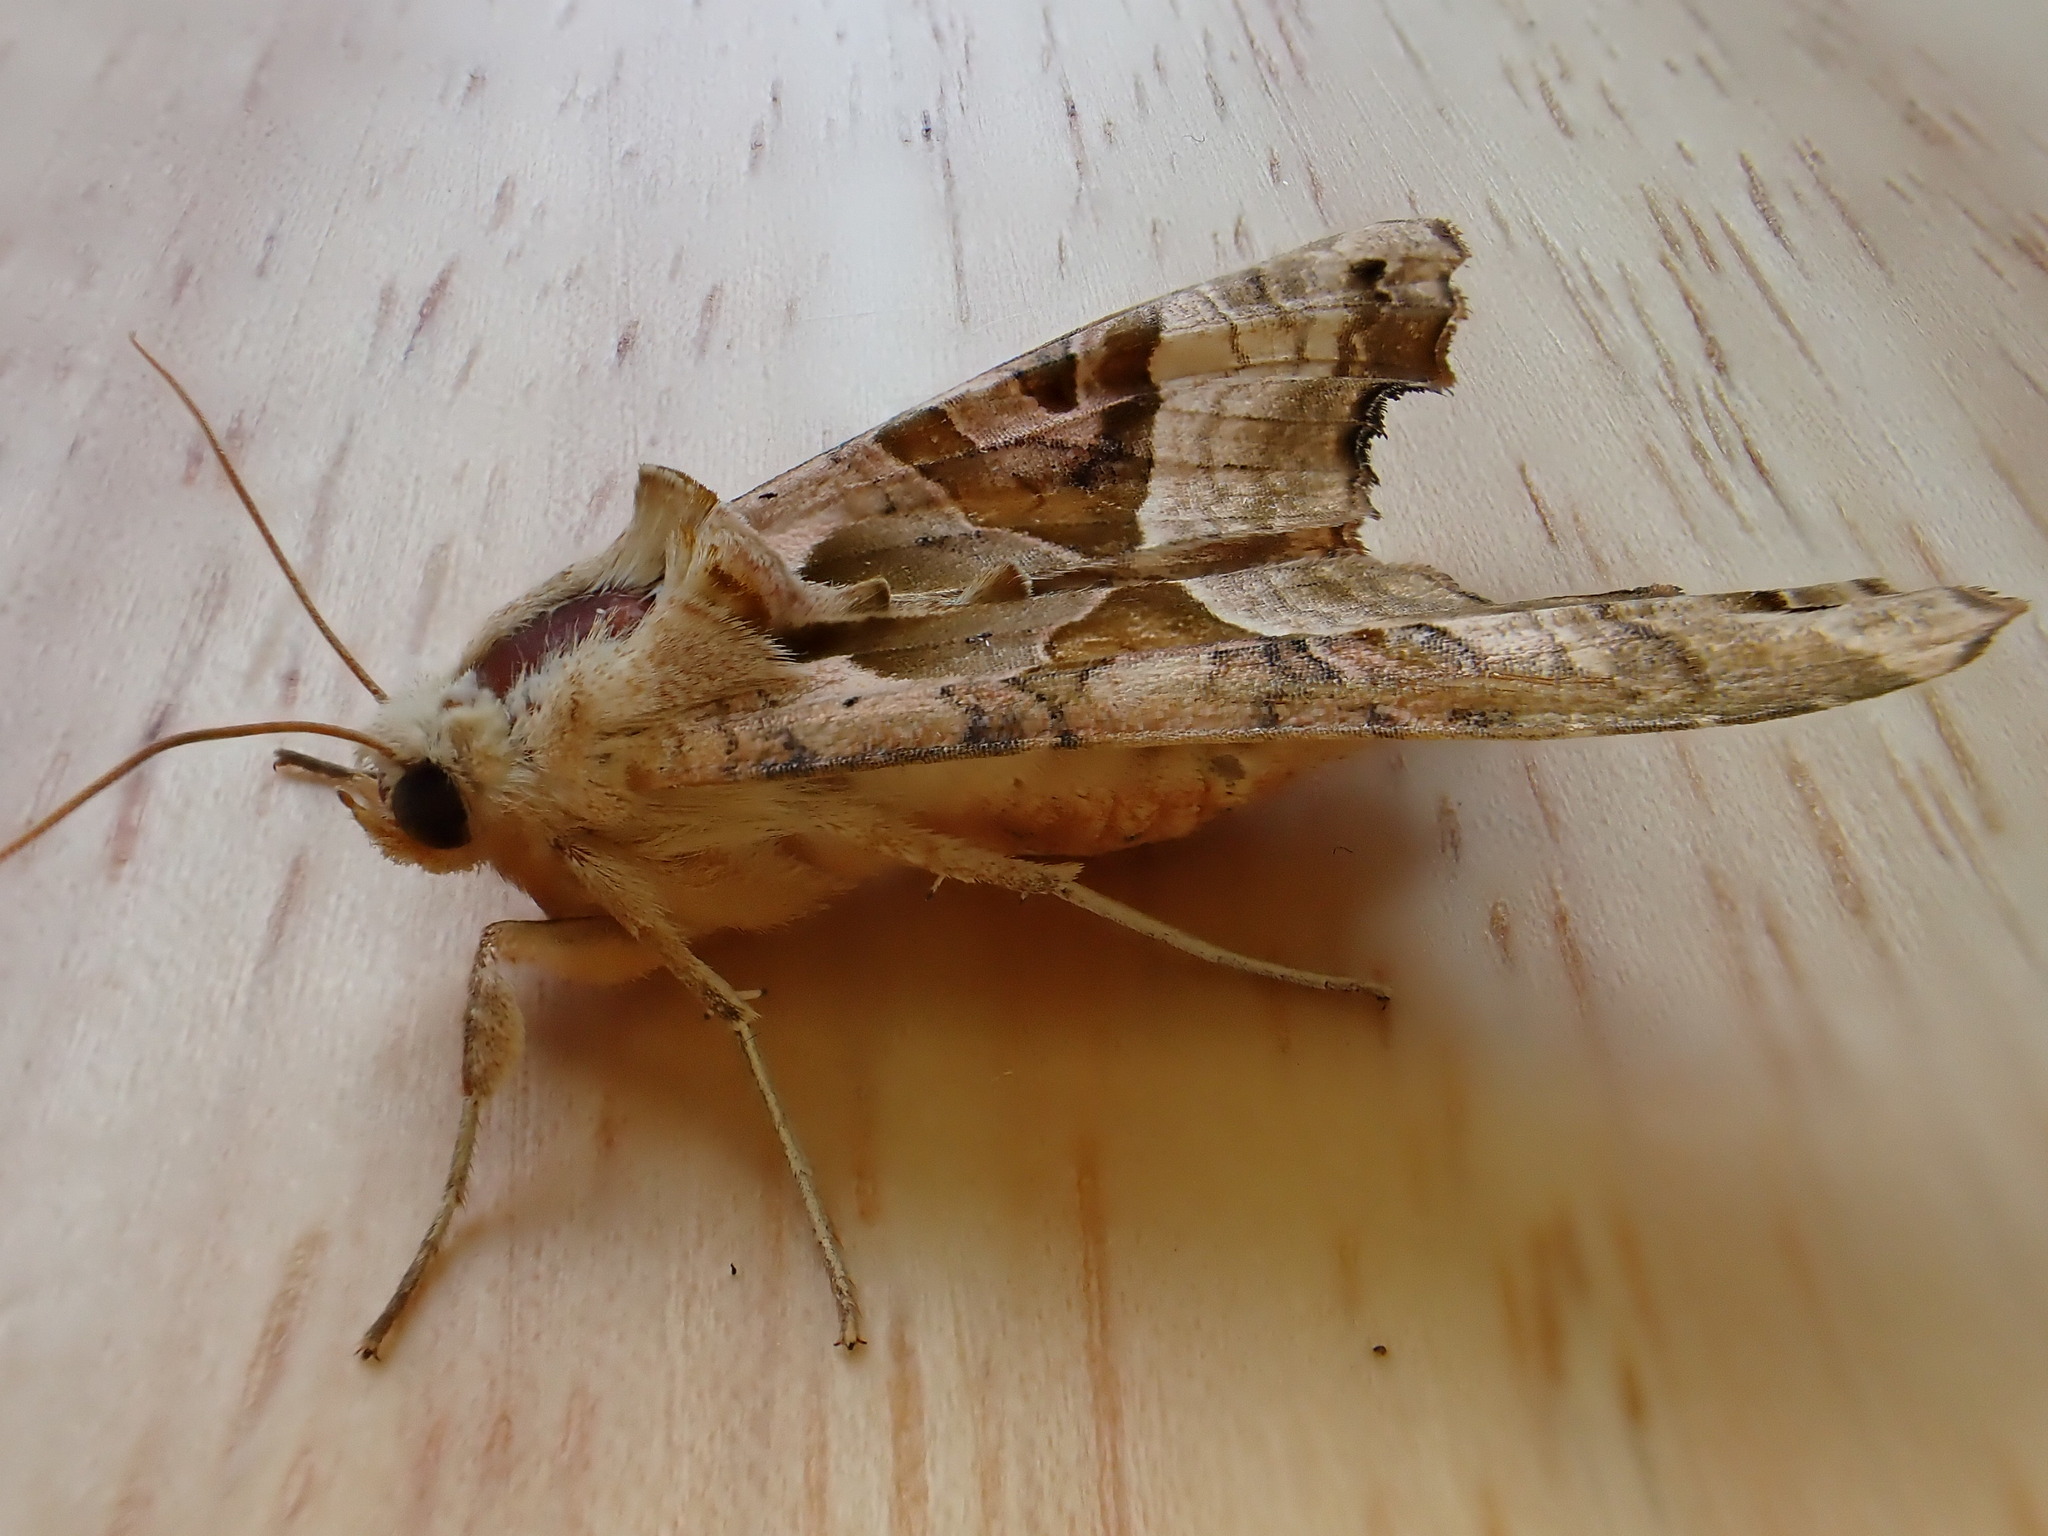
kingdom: Animalia
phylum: Arthropoda
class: Insecta
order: Lepidoptera
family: Noctuidae
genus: Phlogophora
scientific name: Phlogophora meticulosa
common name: Angle shades
